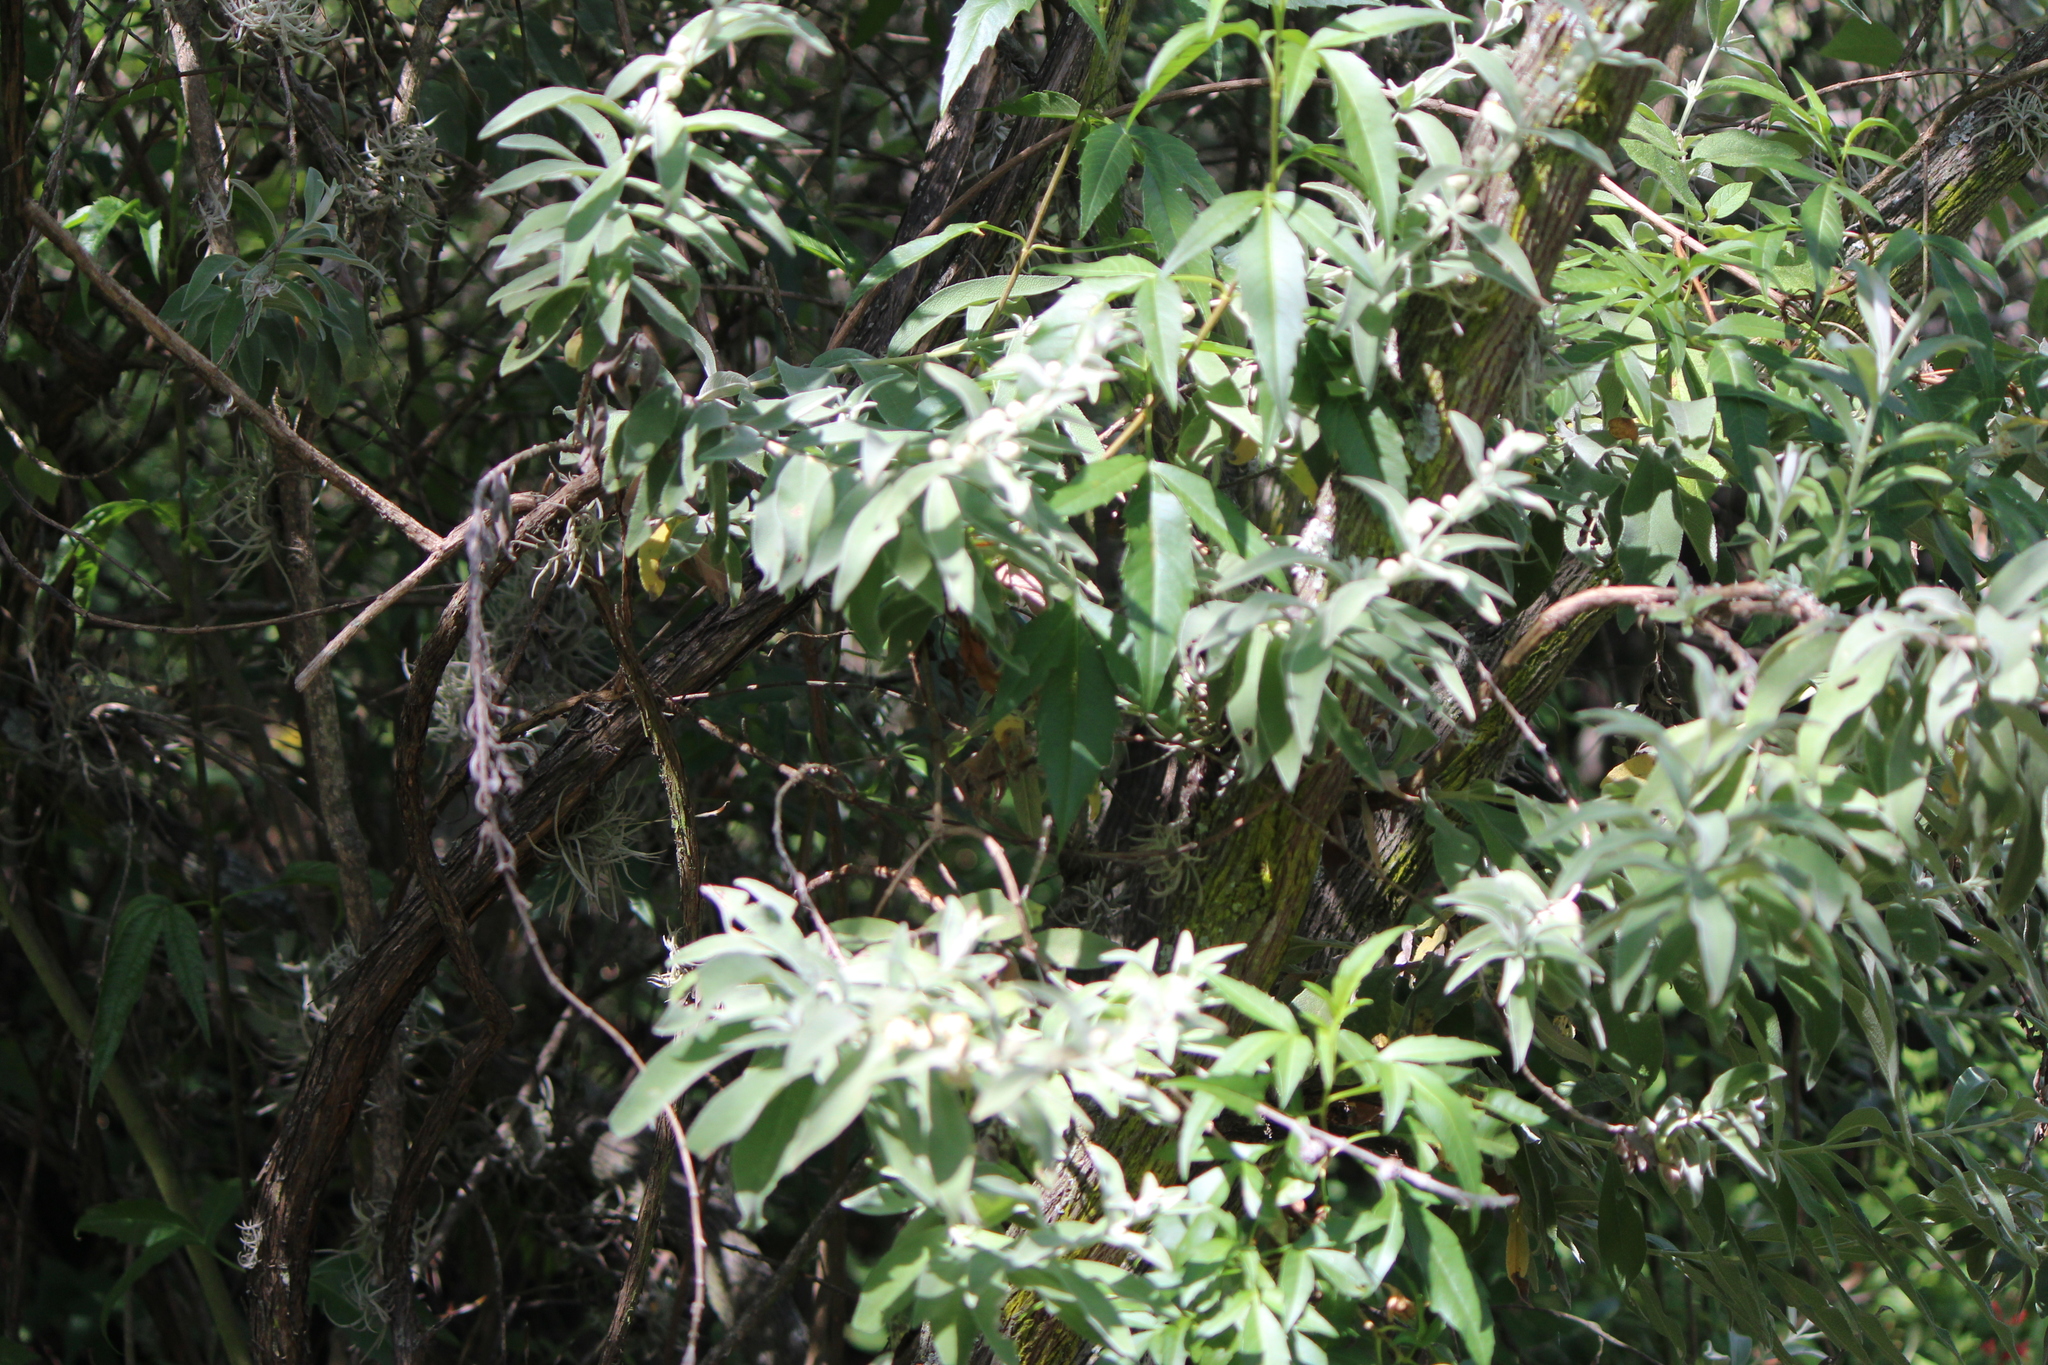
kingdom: Plantae
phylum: Tracheophyta
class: Magnoliopsida
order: Lamiales
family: Scrophulariaceae
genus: Buddleja
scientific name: Buddleja scordioides
